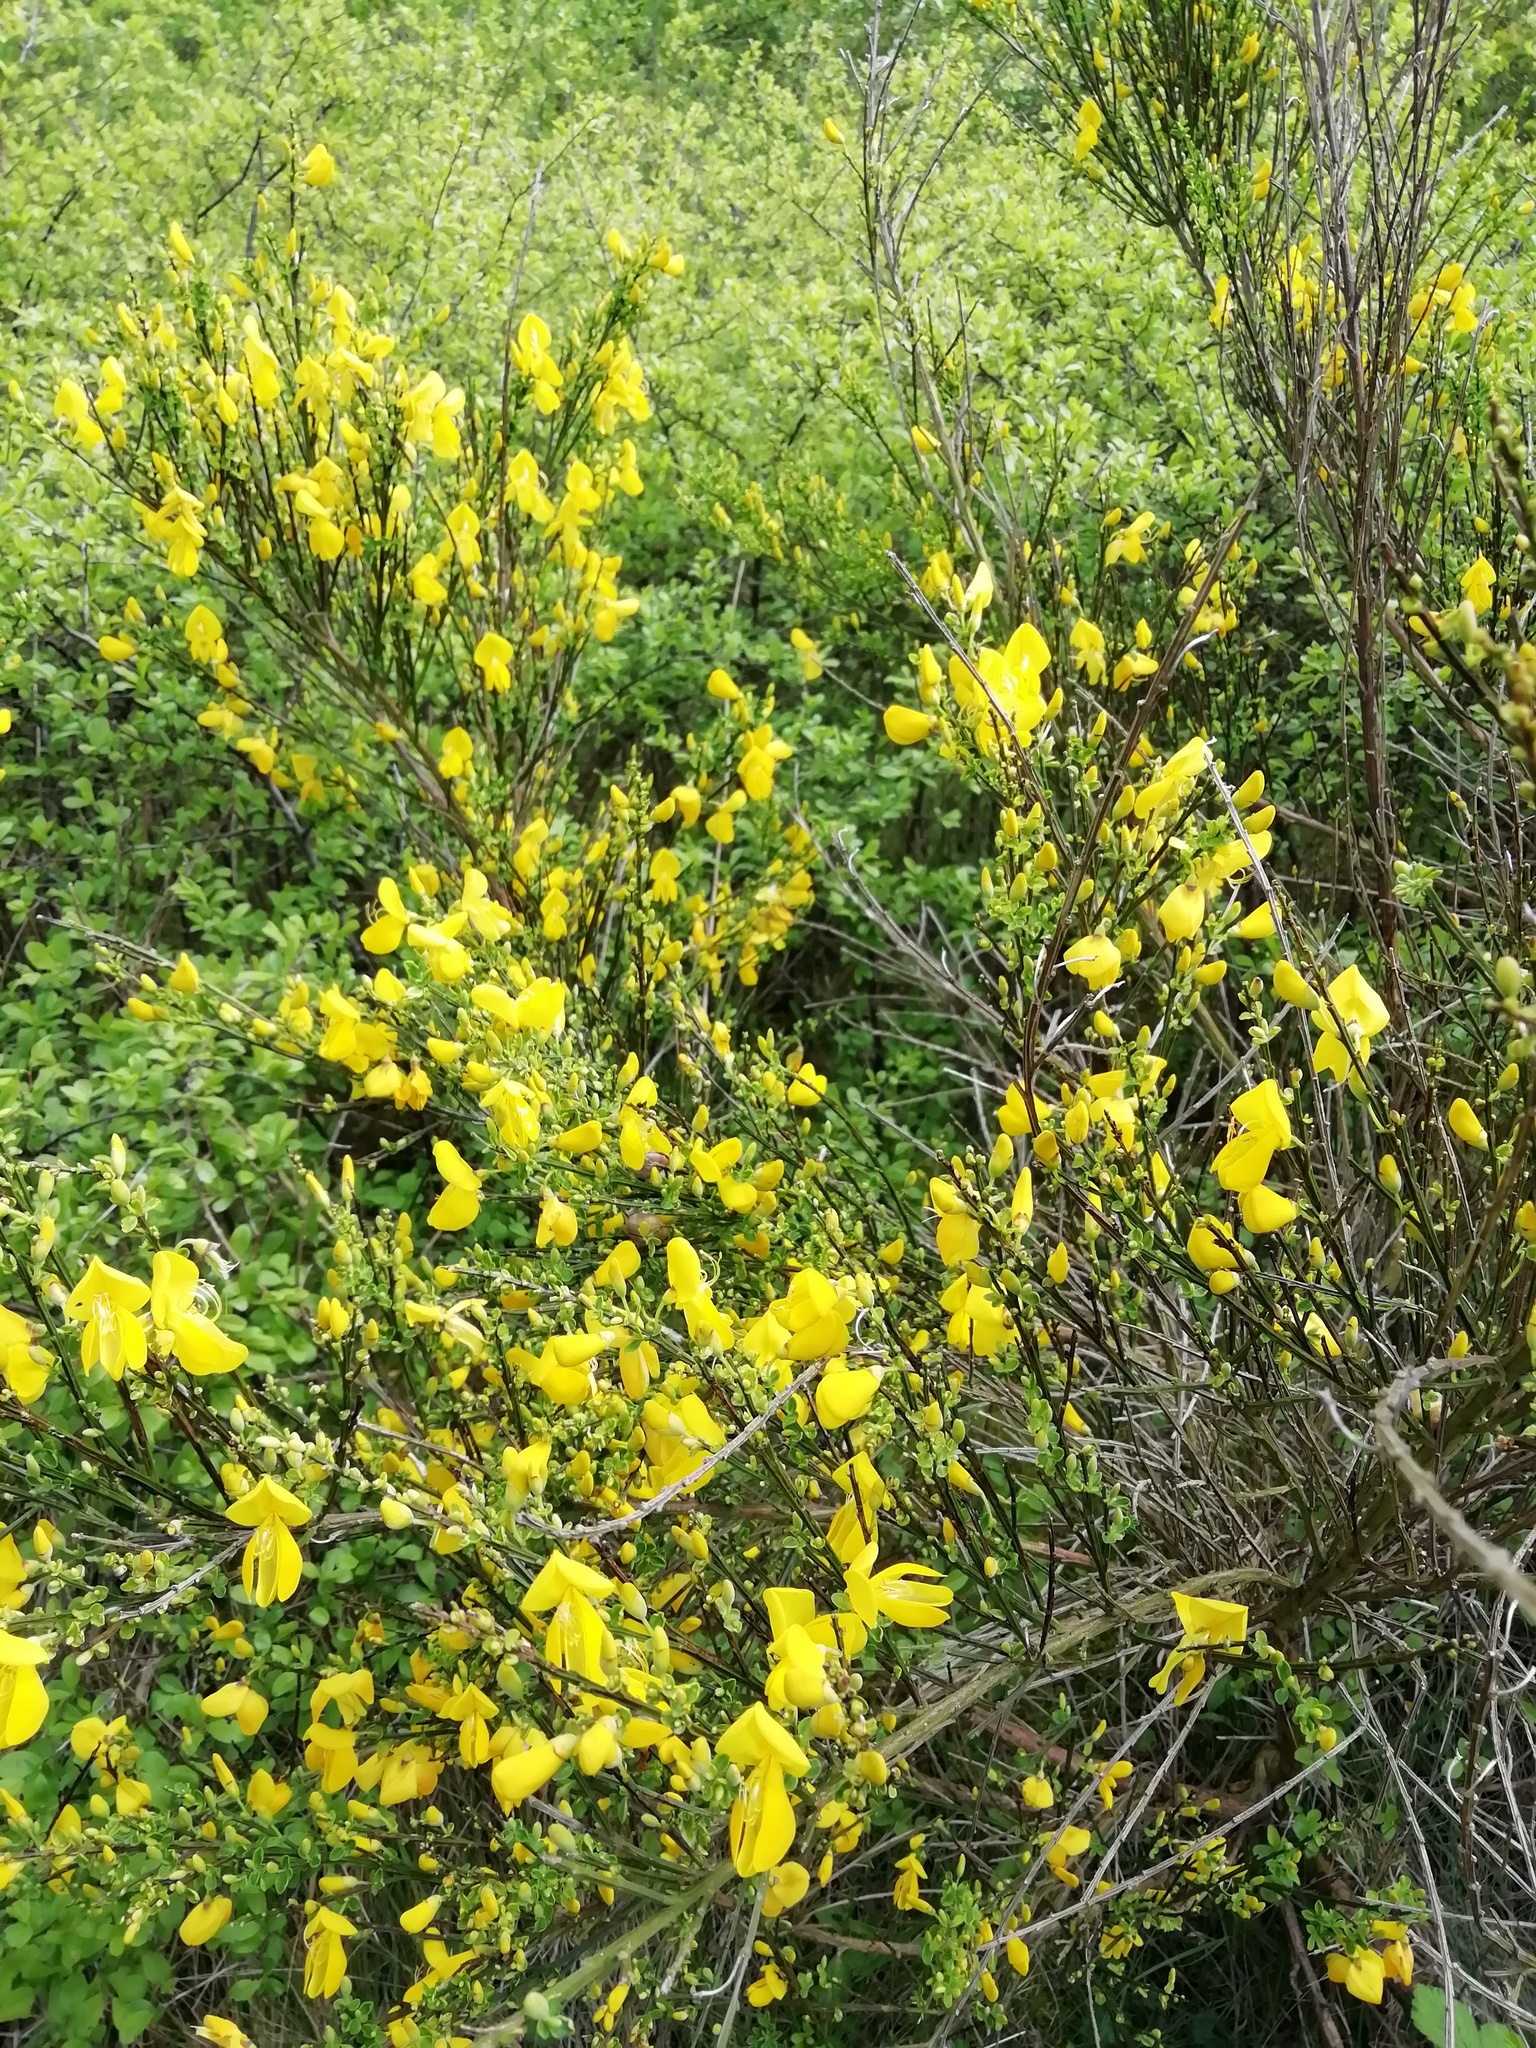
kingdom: Plantae
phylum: Tracheophyta
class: Magnoliopsida
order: Fabales
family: Fabaceae
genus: Cytisus
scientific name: Cytisus scoparius
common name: Scotch broom
